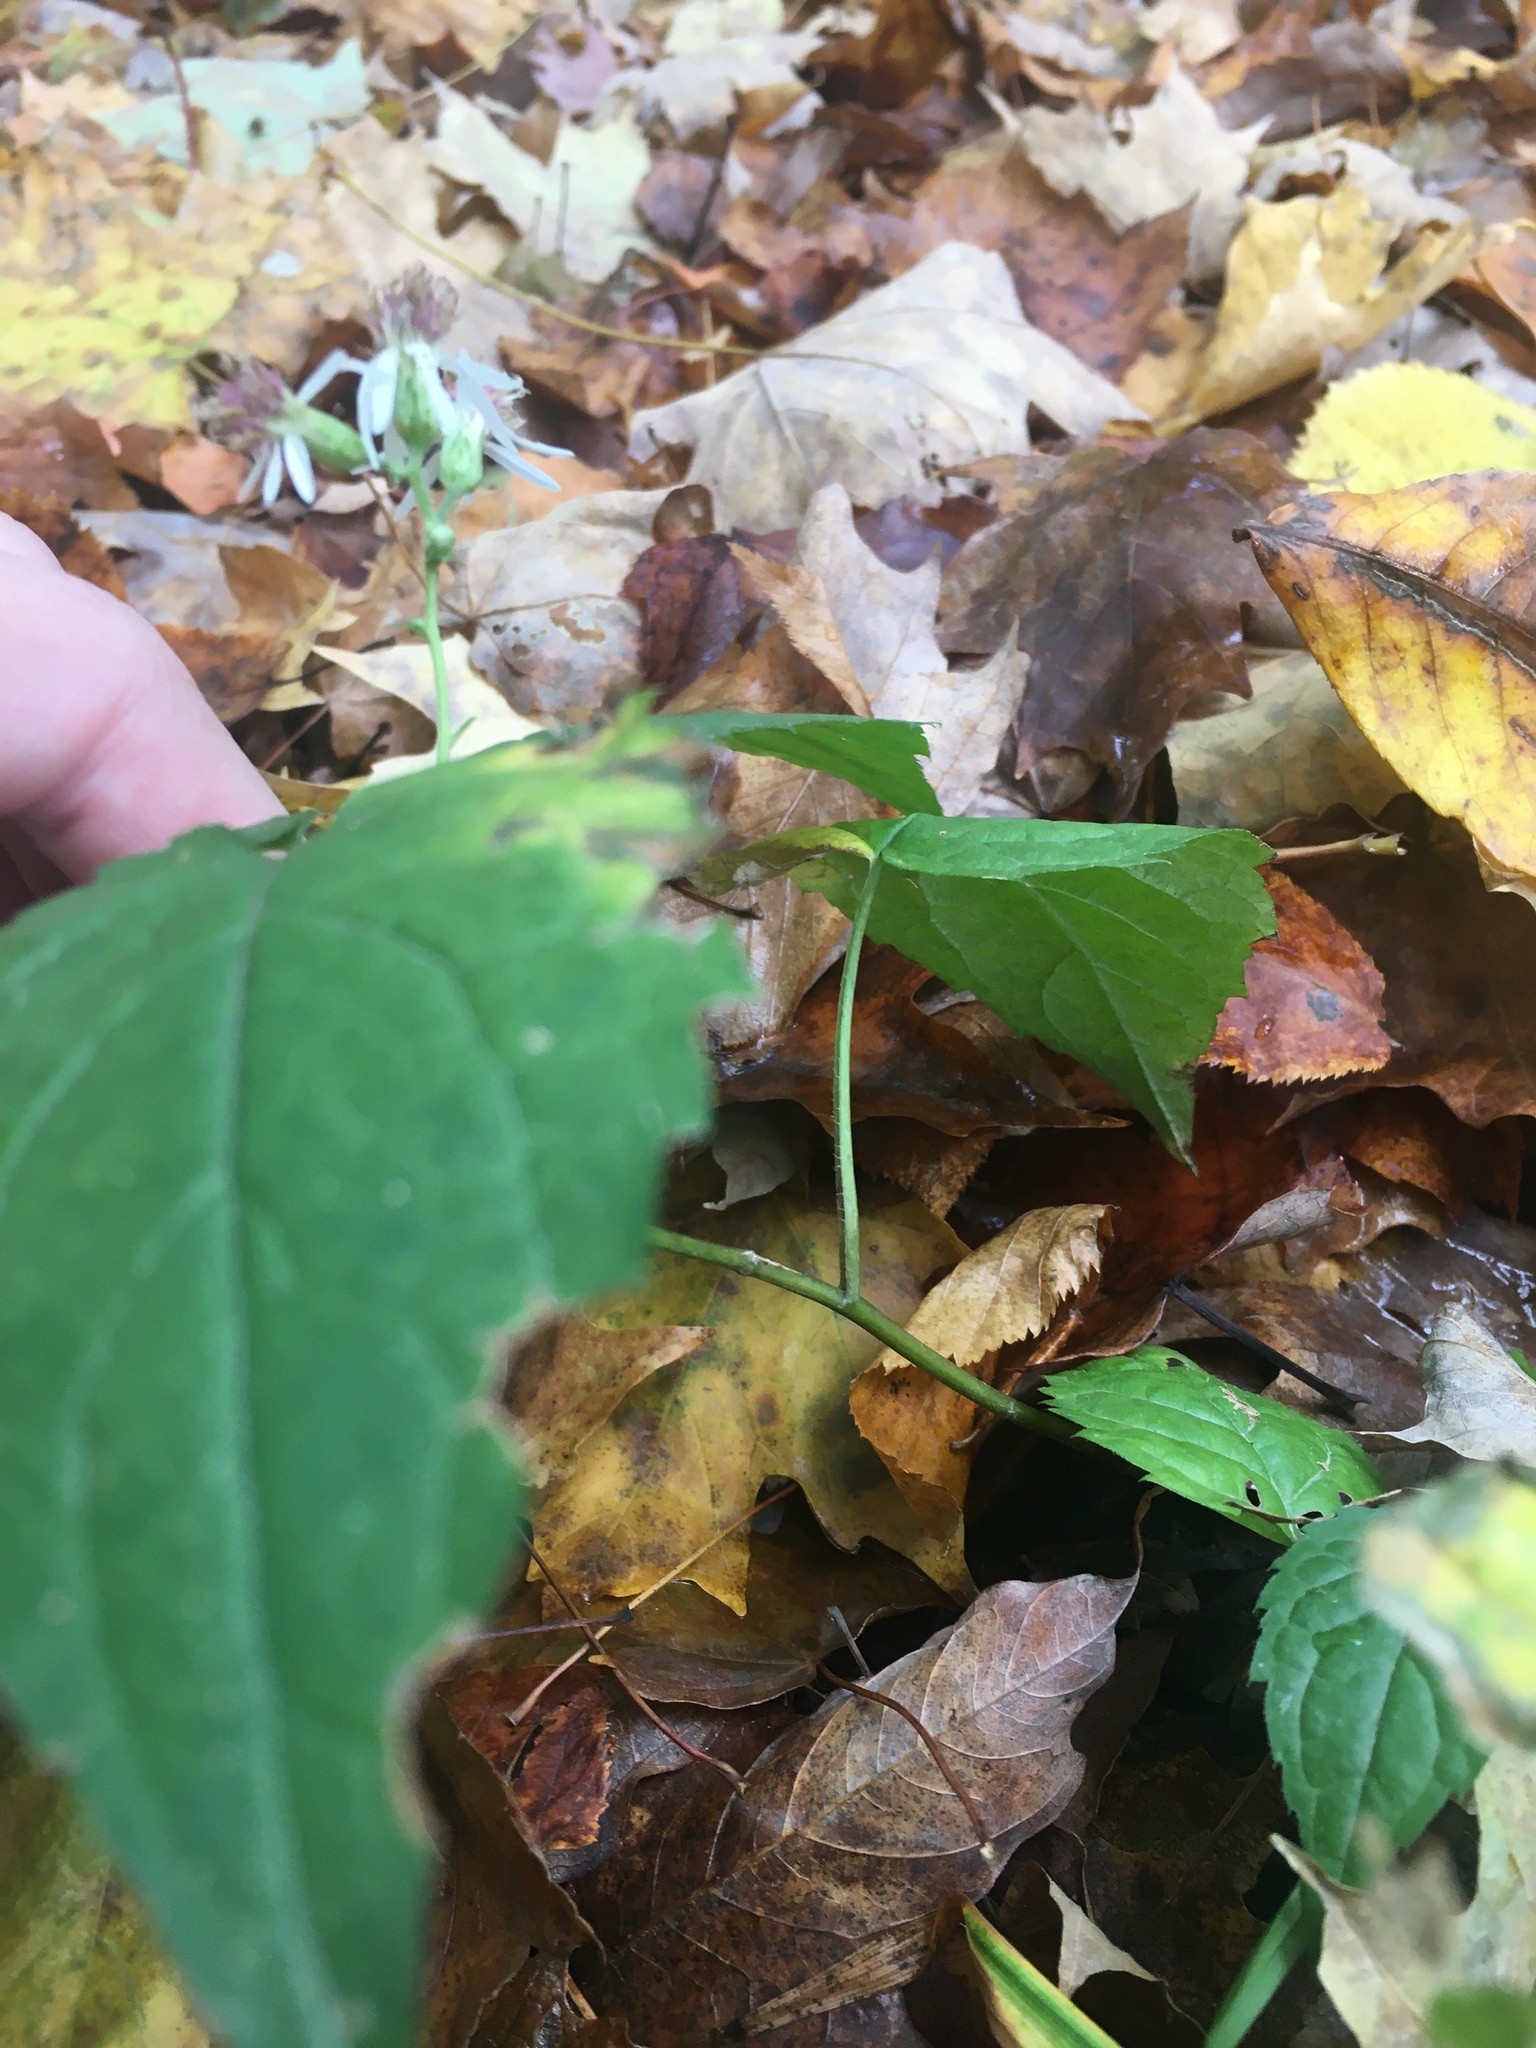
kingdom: Plantae
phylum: Tracheophyta
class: Magnoliopsida
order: Asterales
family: Asteraceae
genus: Eurybia
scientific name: Eurybia divaricata
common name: White wood aster
